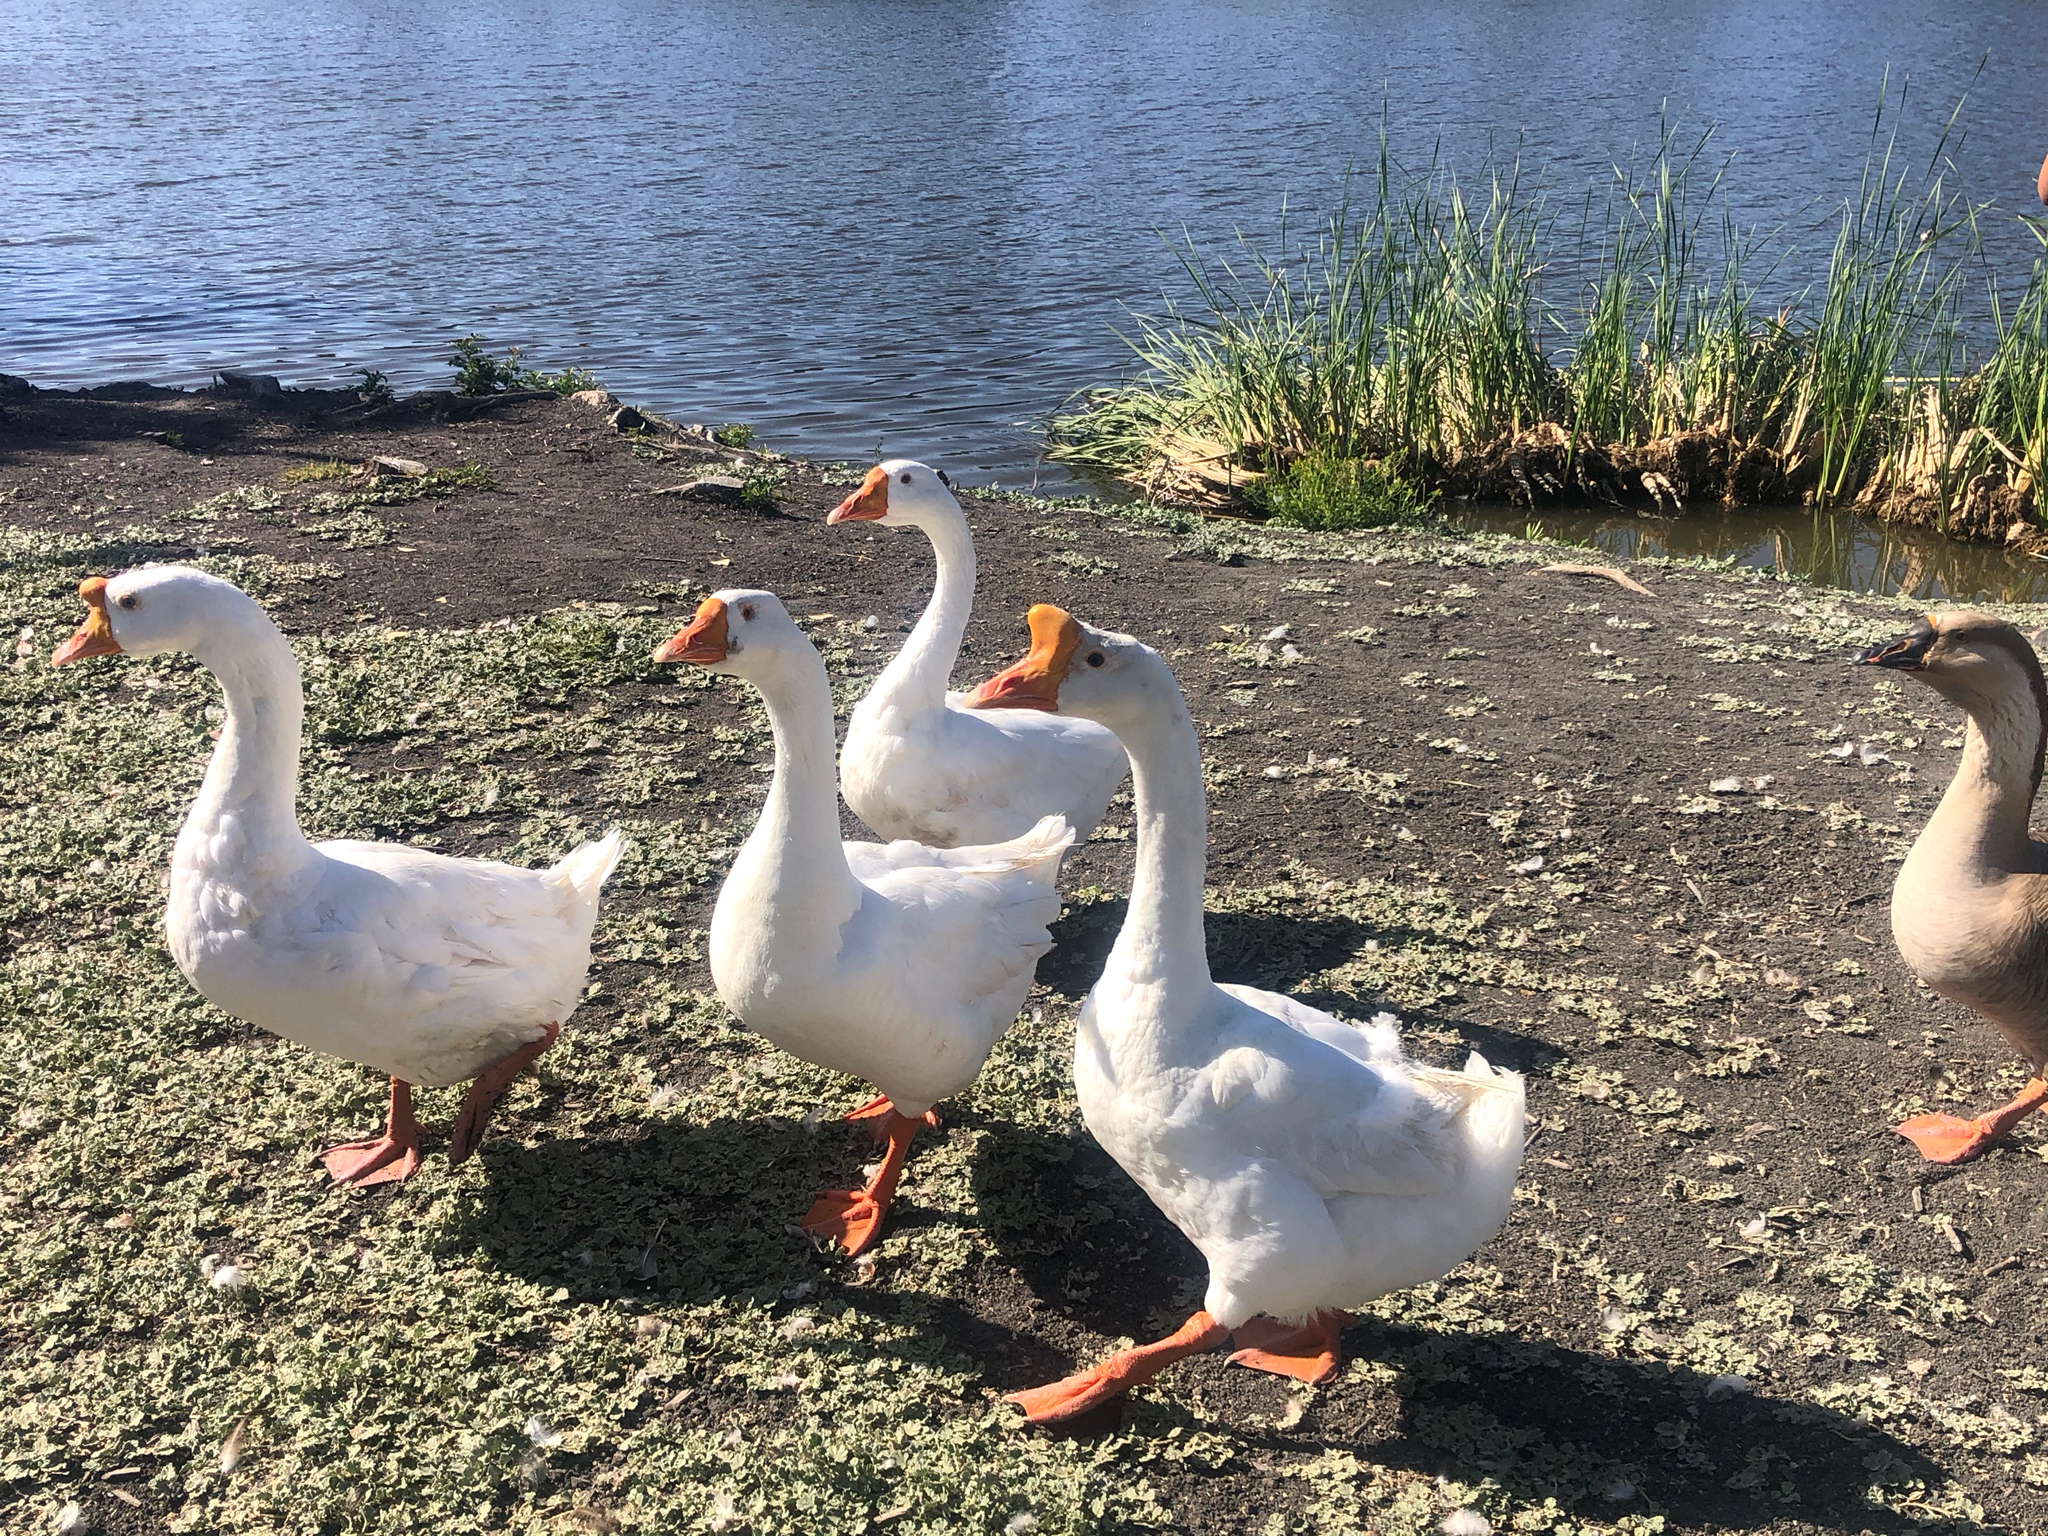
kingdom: Animalia
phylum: Chordata
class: Aves
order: Anseriformes
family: Anatidae
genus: Anser
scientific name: Anser cygnoides
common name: Swan goose
